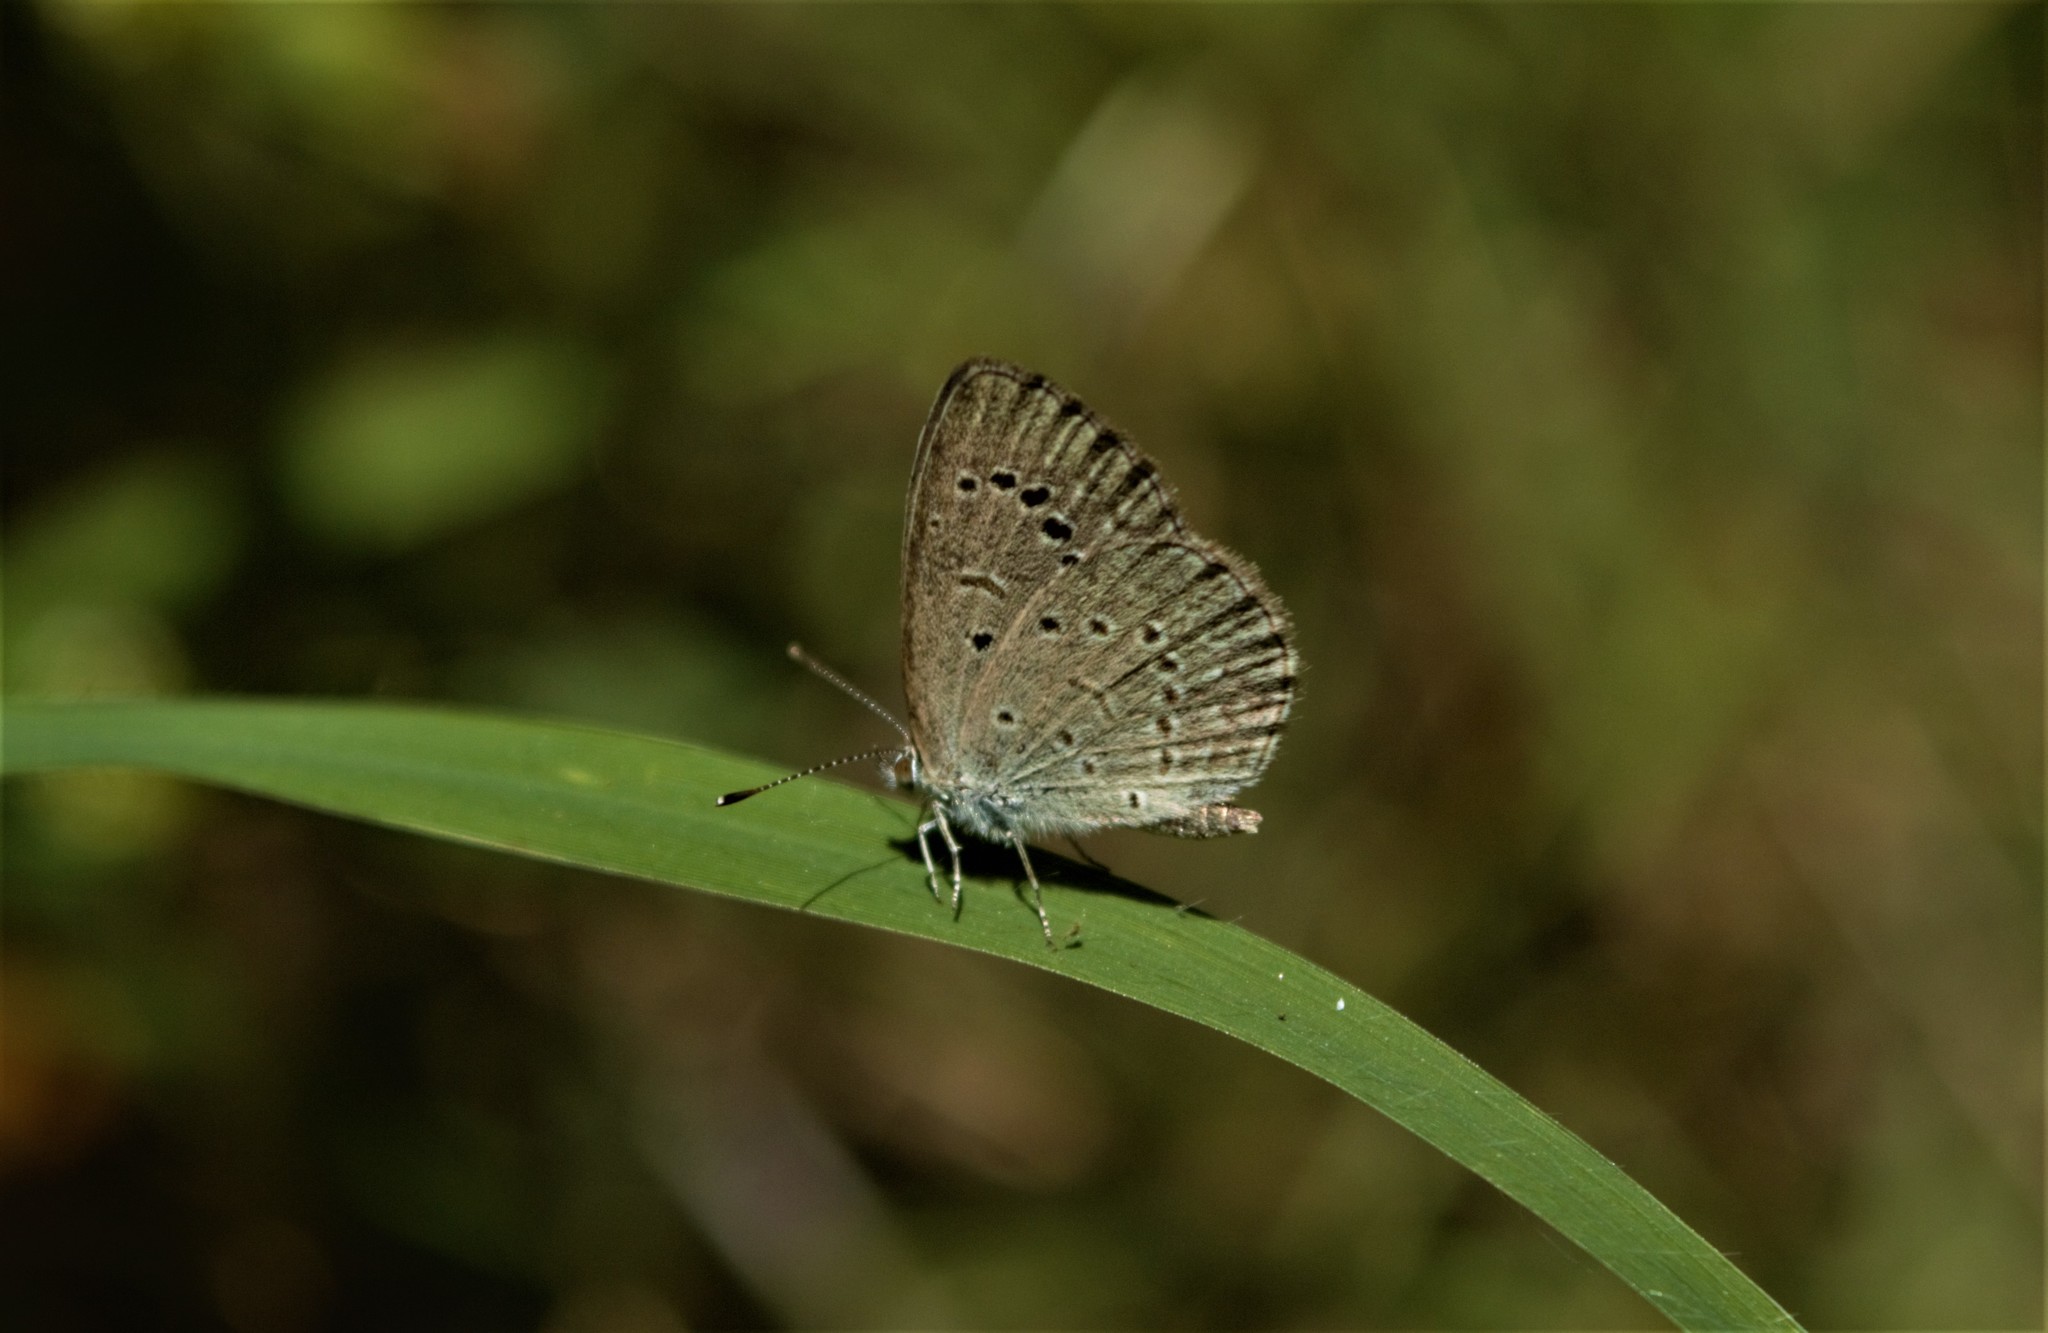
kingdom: Animalia
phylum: Arthropoda
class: Insecta
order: Lepidoptera
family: Lycaenidae
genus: Zizeeria
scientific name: Zizeeria karsandra
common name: Dark grass blue
